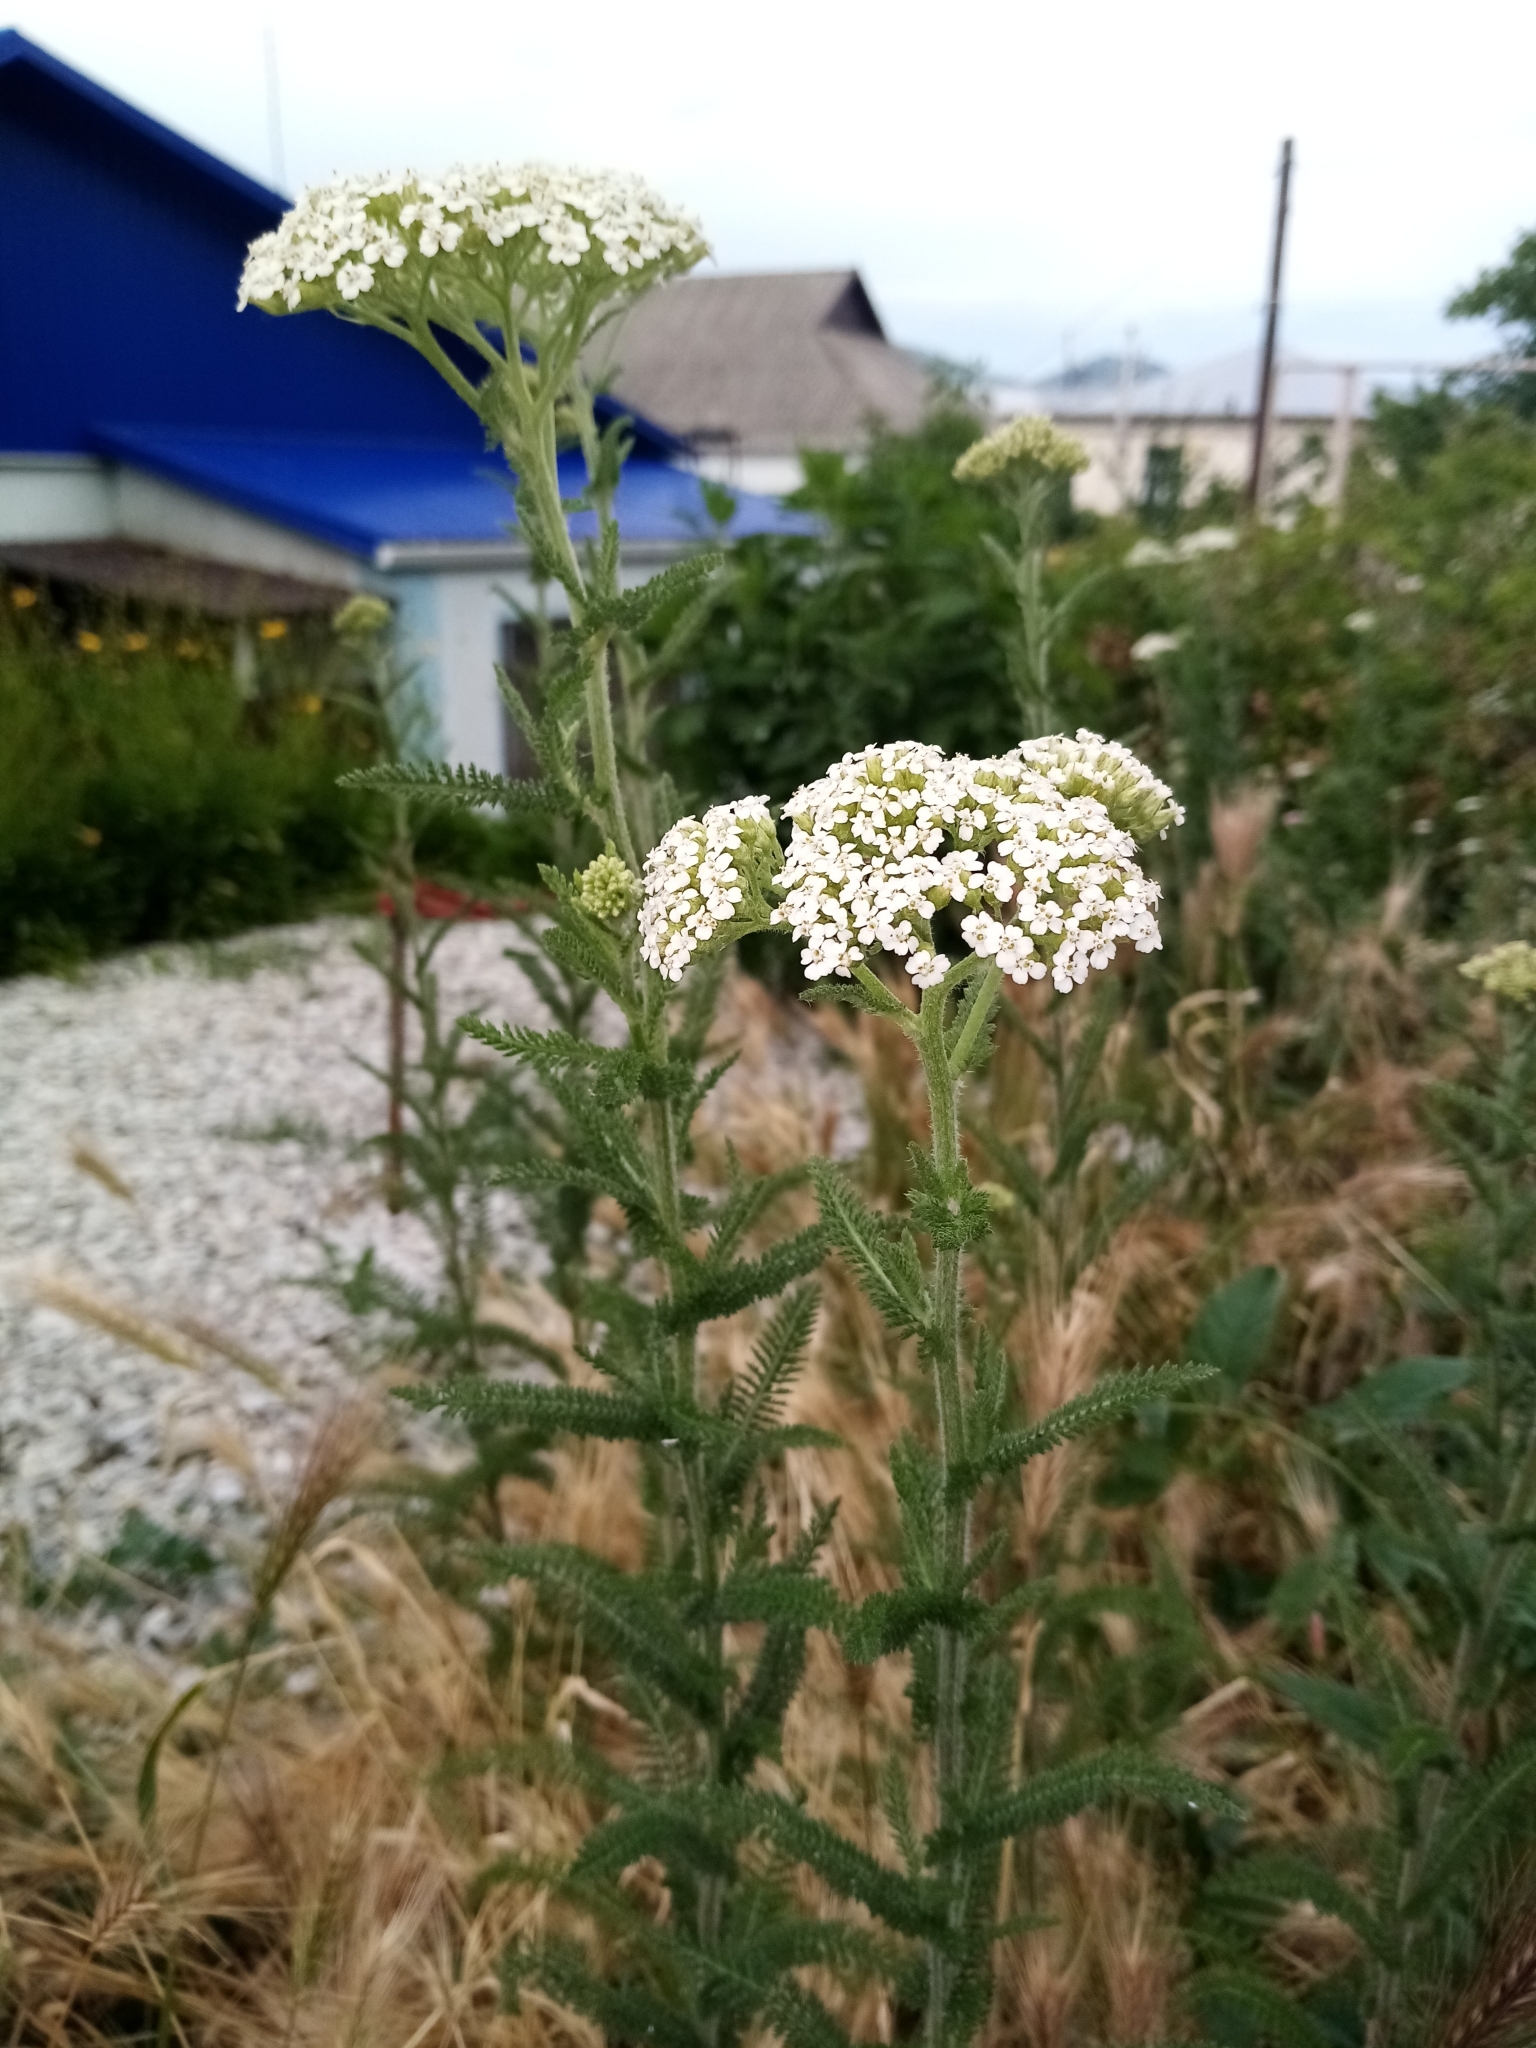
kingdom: Plantae
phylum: Tracheophyta
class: Magnoliopsida
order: Asterales
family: Asteraceae
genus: Achillea
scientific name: Achillea setacea
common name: Bristly yarrow
